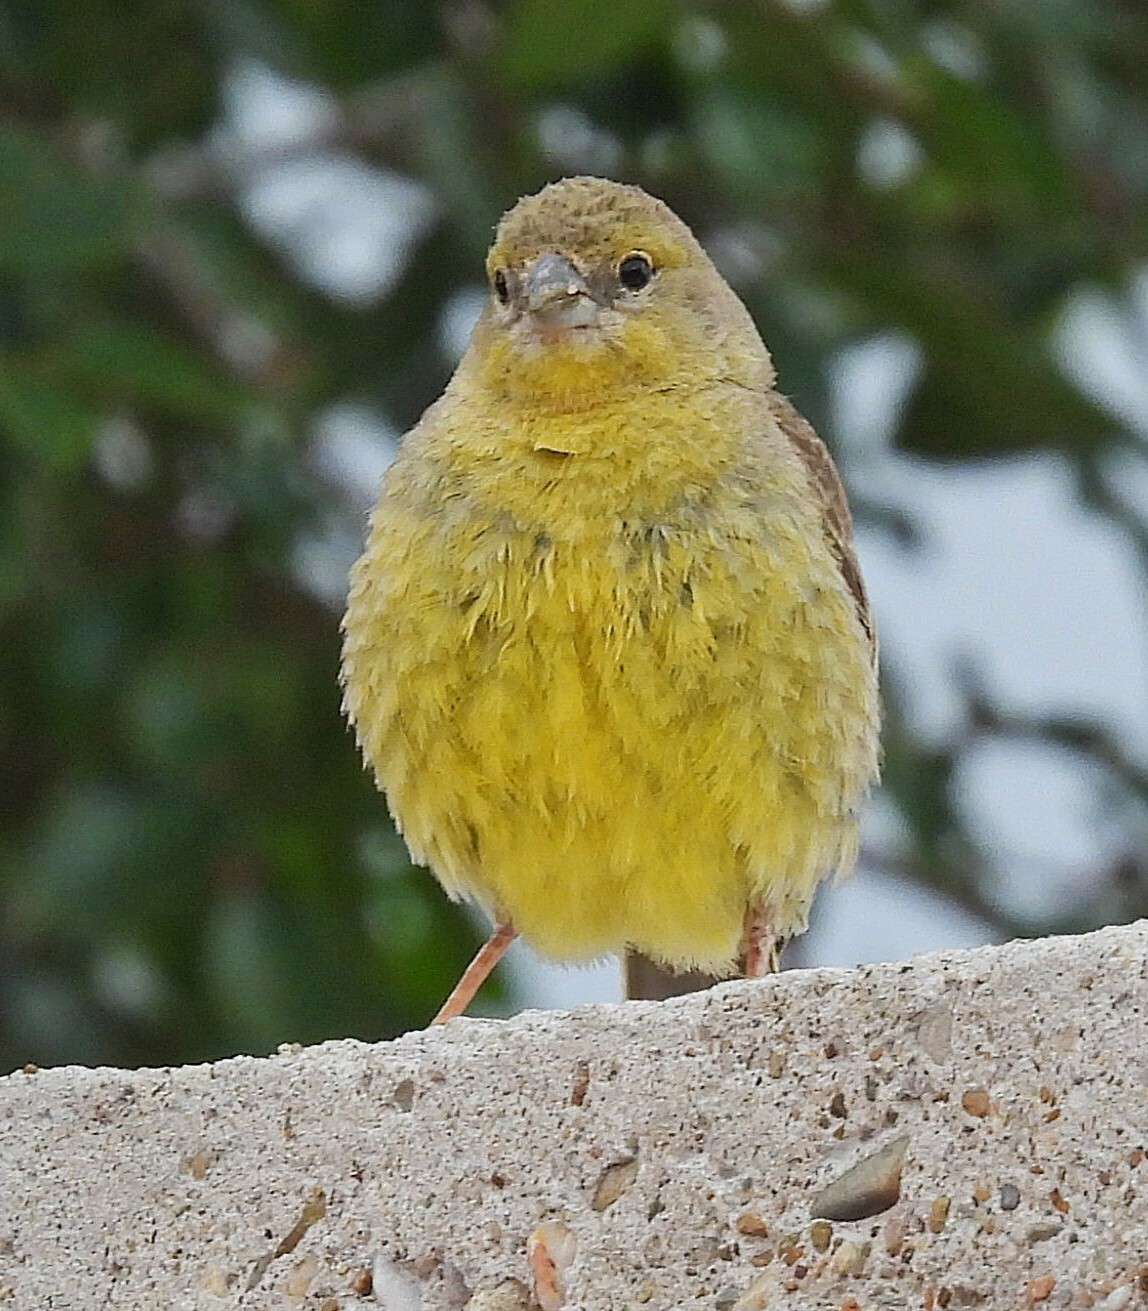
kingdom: Animalia
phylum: Chordata
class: Aves
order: Passeriformes
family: Thraupidae
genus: Sicalis
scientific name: Sicalis olivascens
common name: Greenish yellow finch
